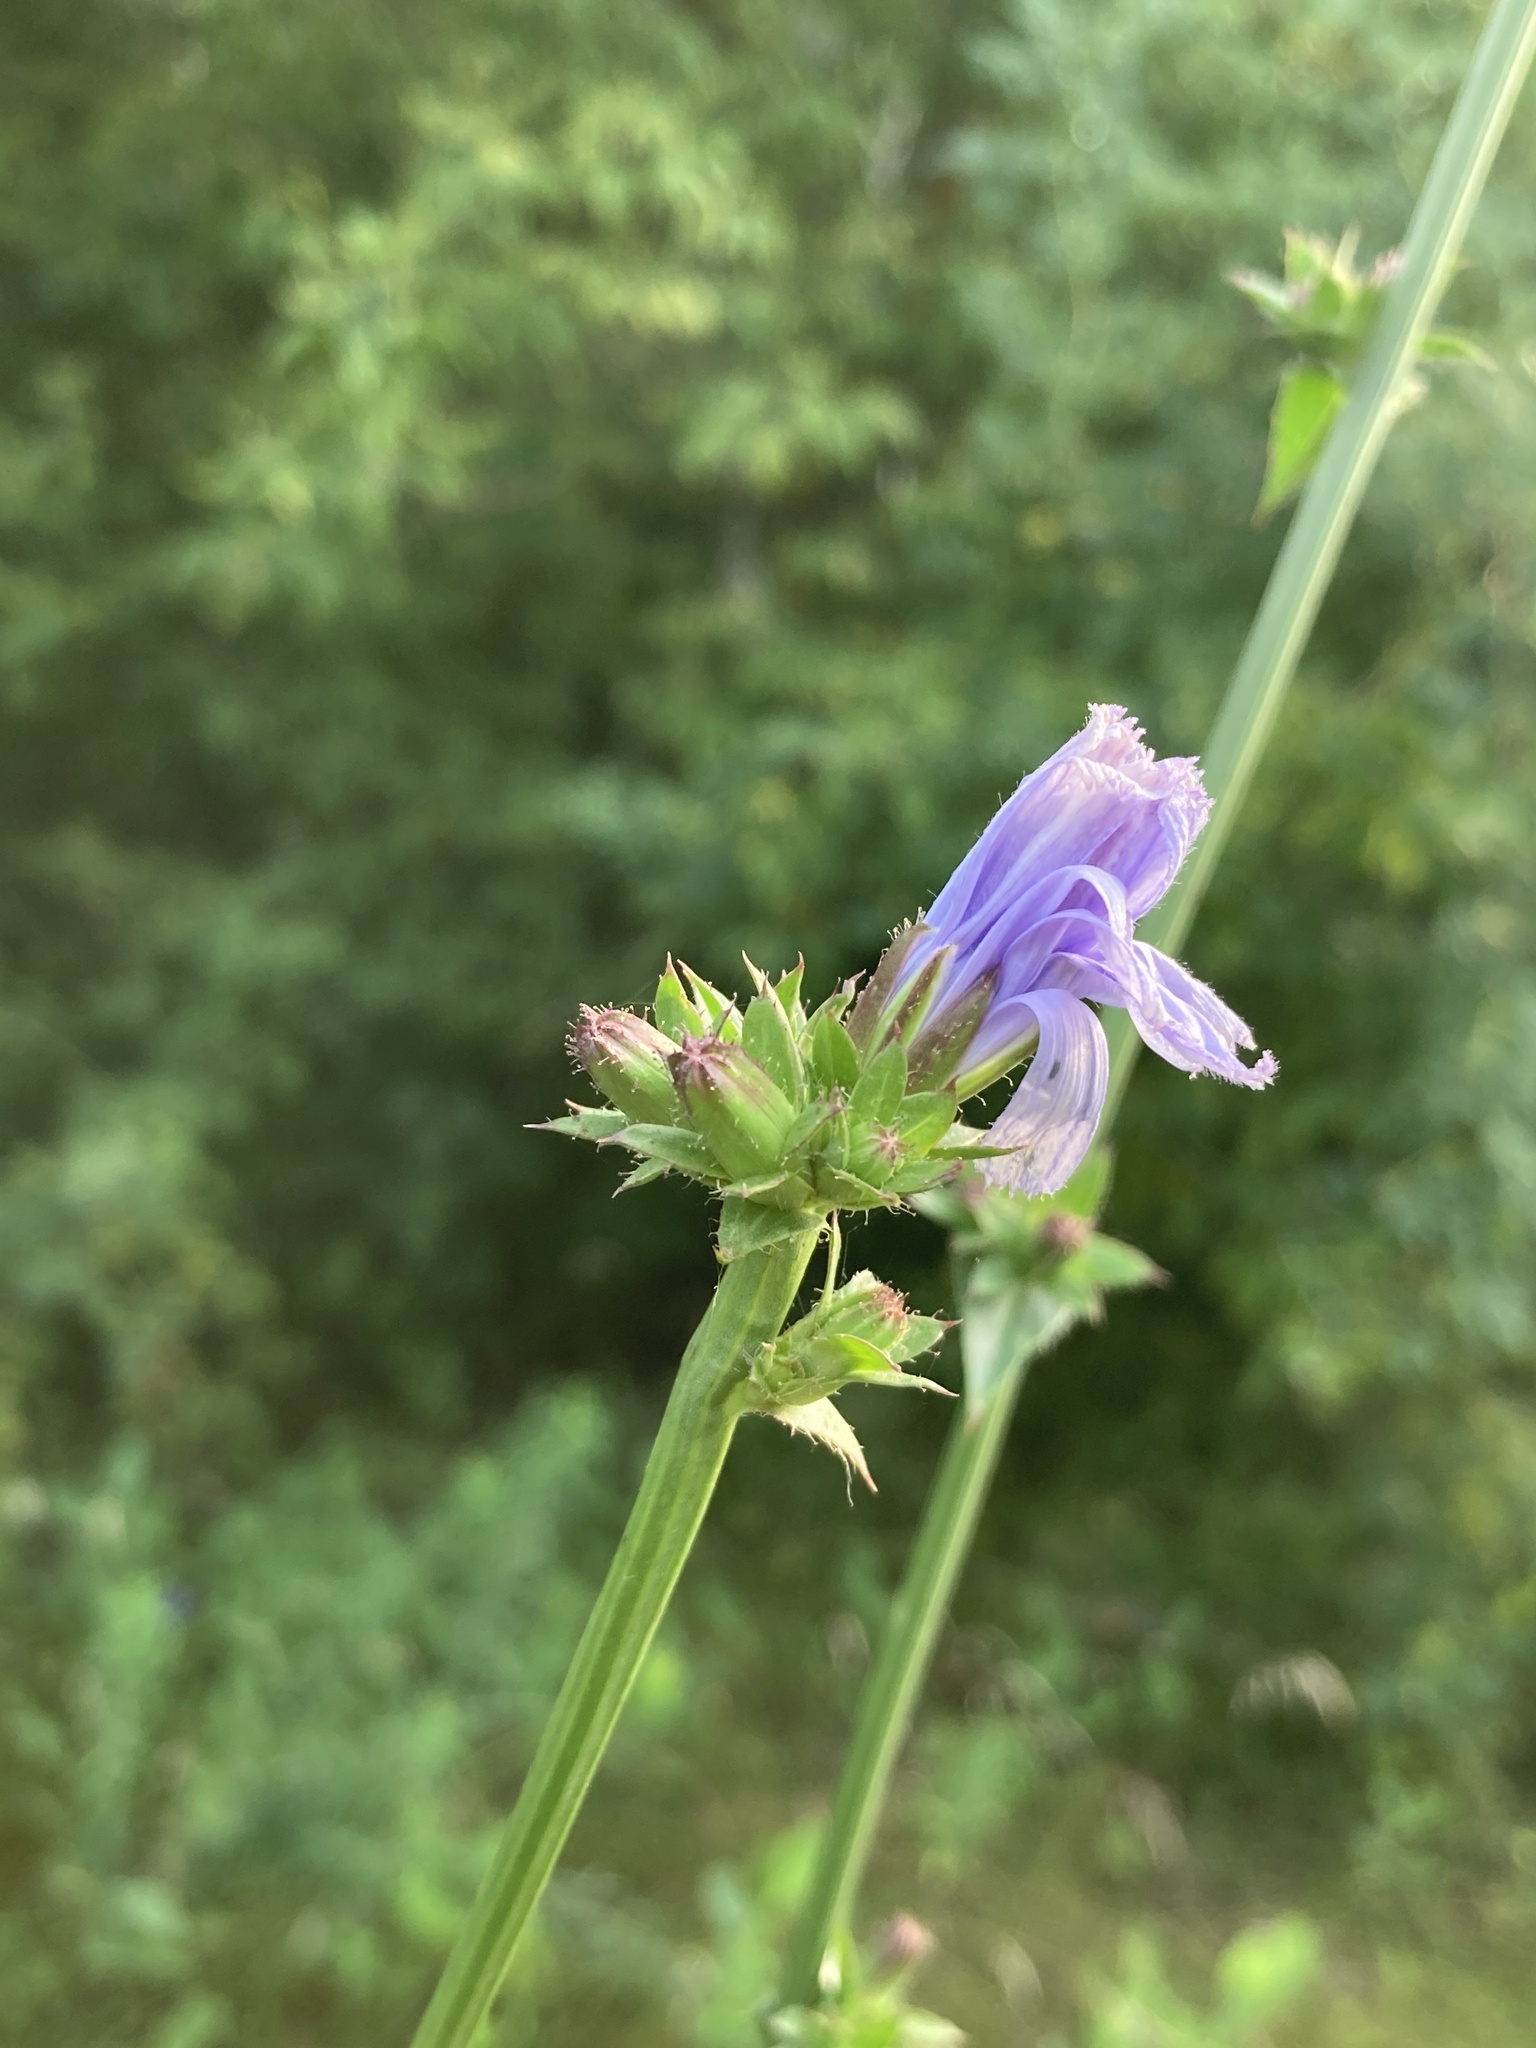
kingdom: Plantae
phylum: Tracheophyta
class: Magnoliopsida
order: Asterales
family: Asteraceae
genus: Cichorium
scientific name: Cichorium intybus
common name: Chicory
